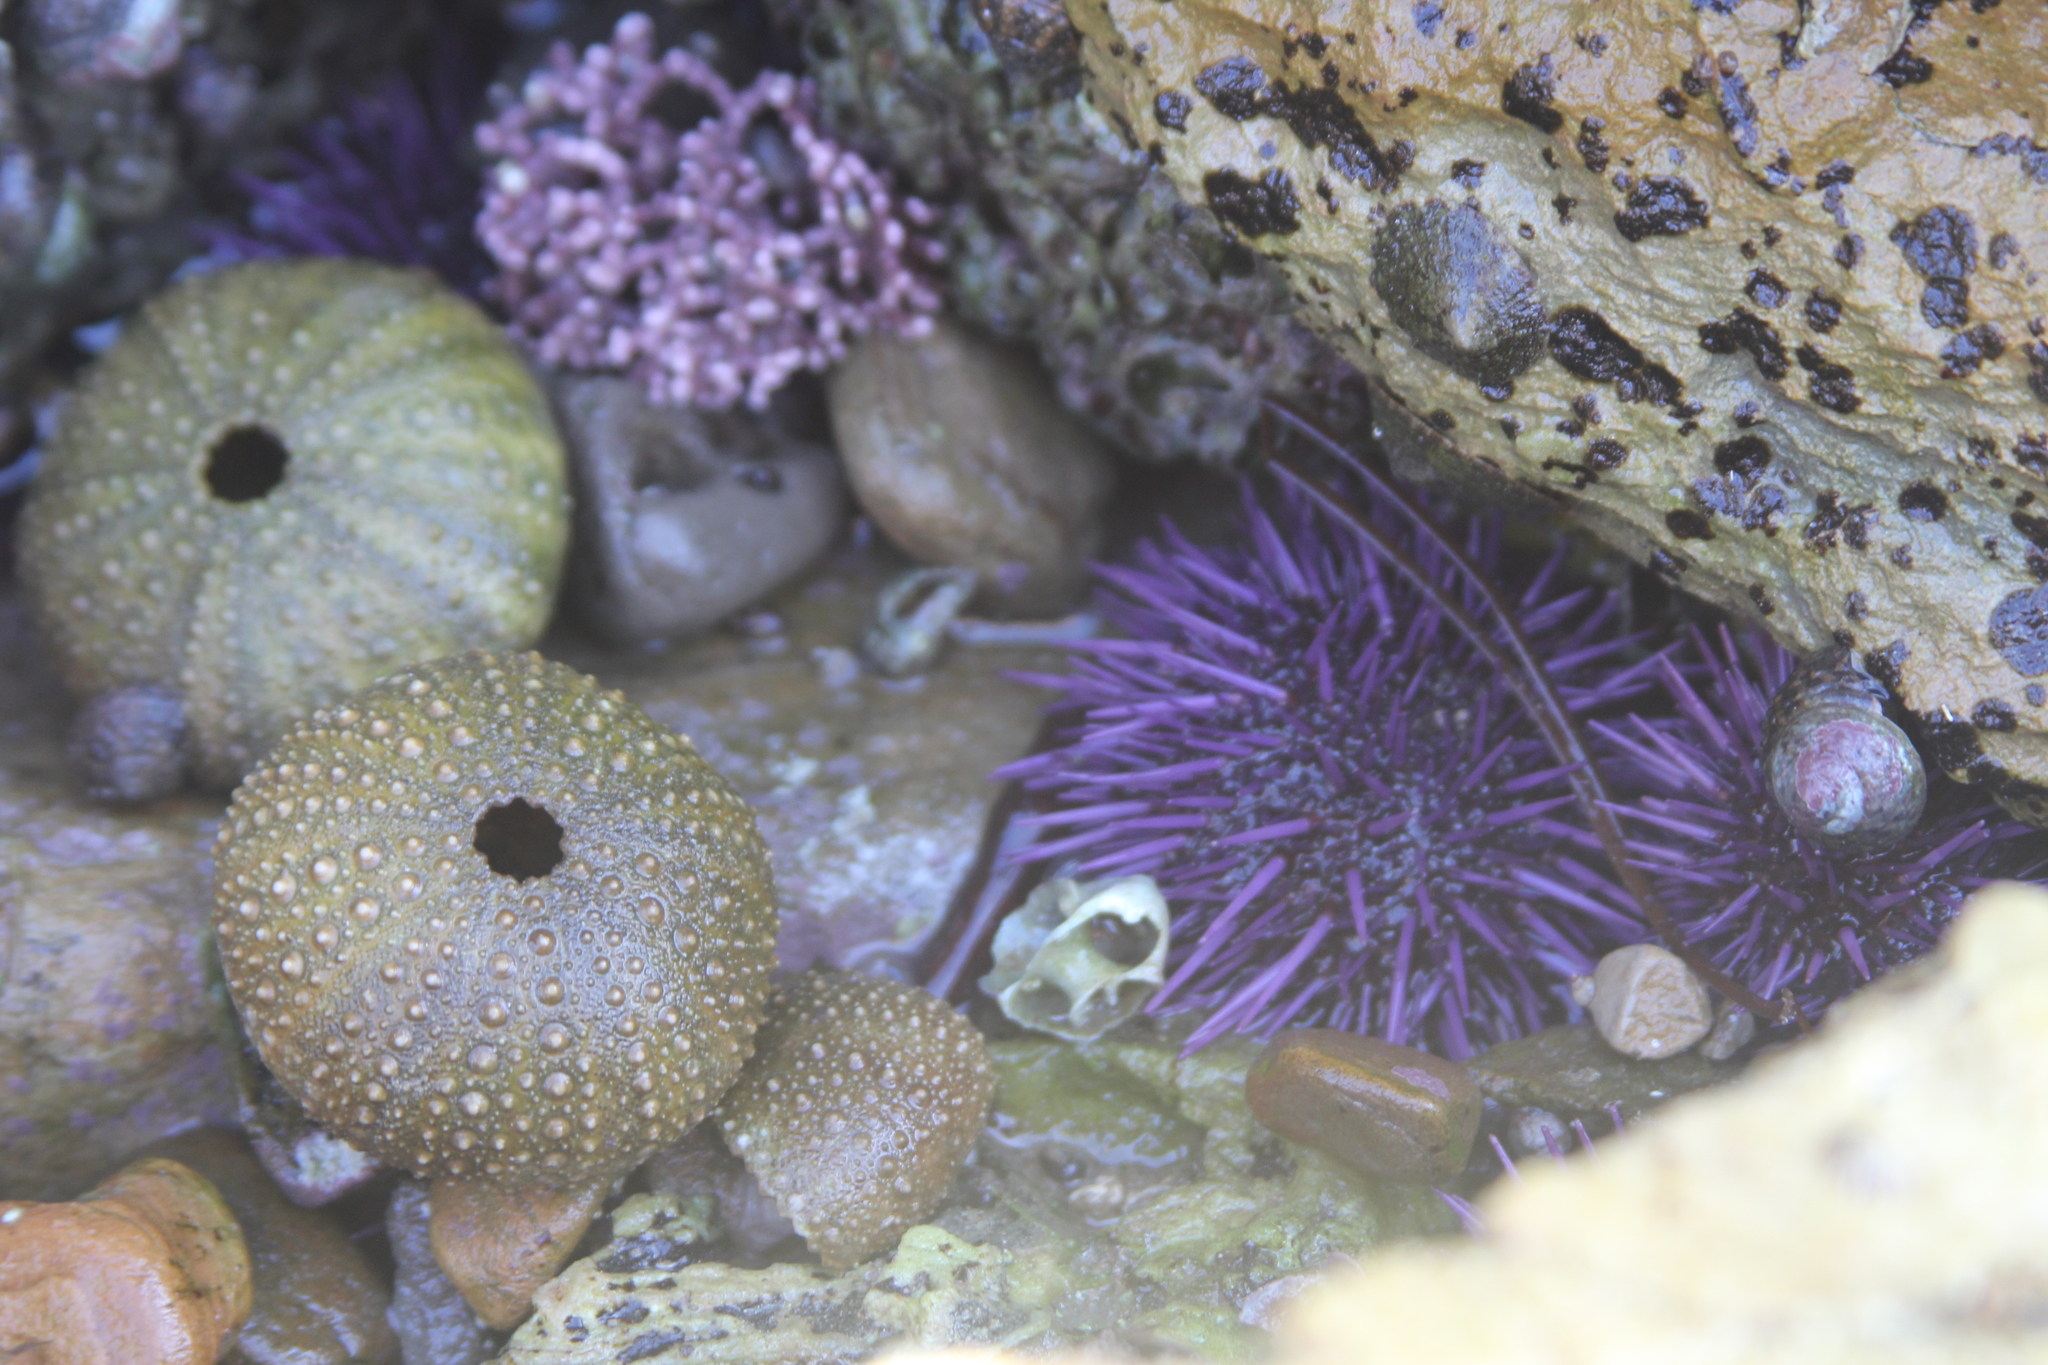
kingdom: Animalia
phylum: Echinodermata
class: Echinoidea
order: Camarodonta
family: Strongylocentrotidae
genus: Strongylocentrotus
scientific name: Strongylocentrotus purpuratus
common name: Purple sea urchin
